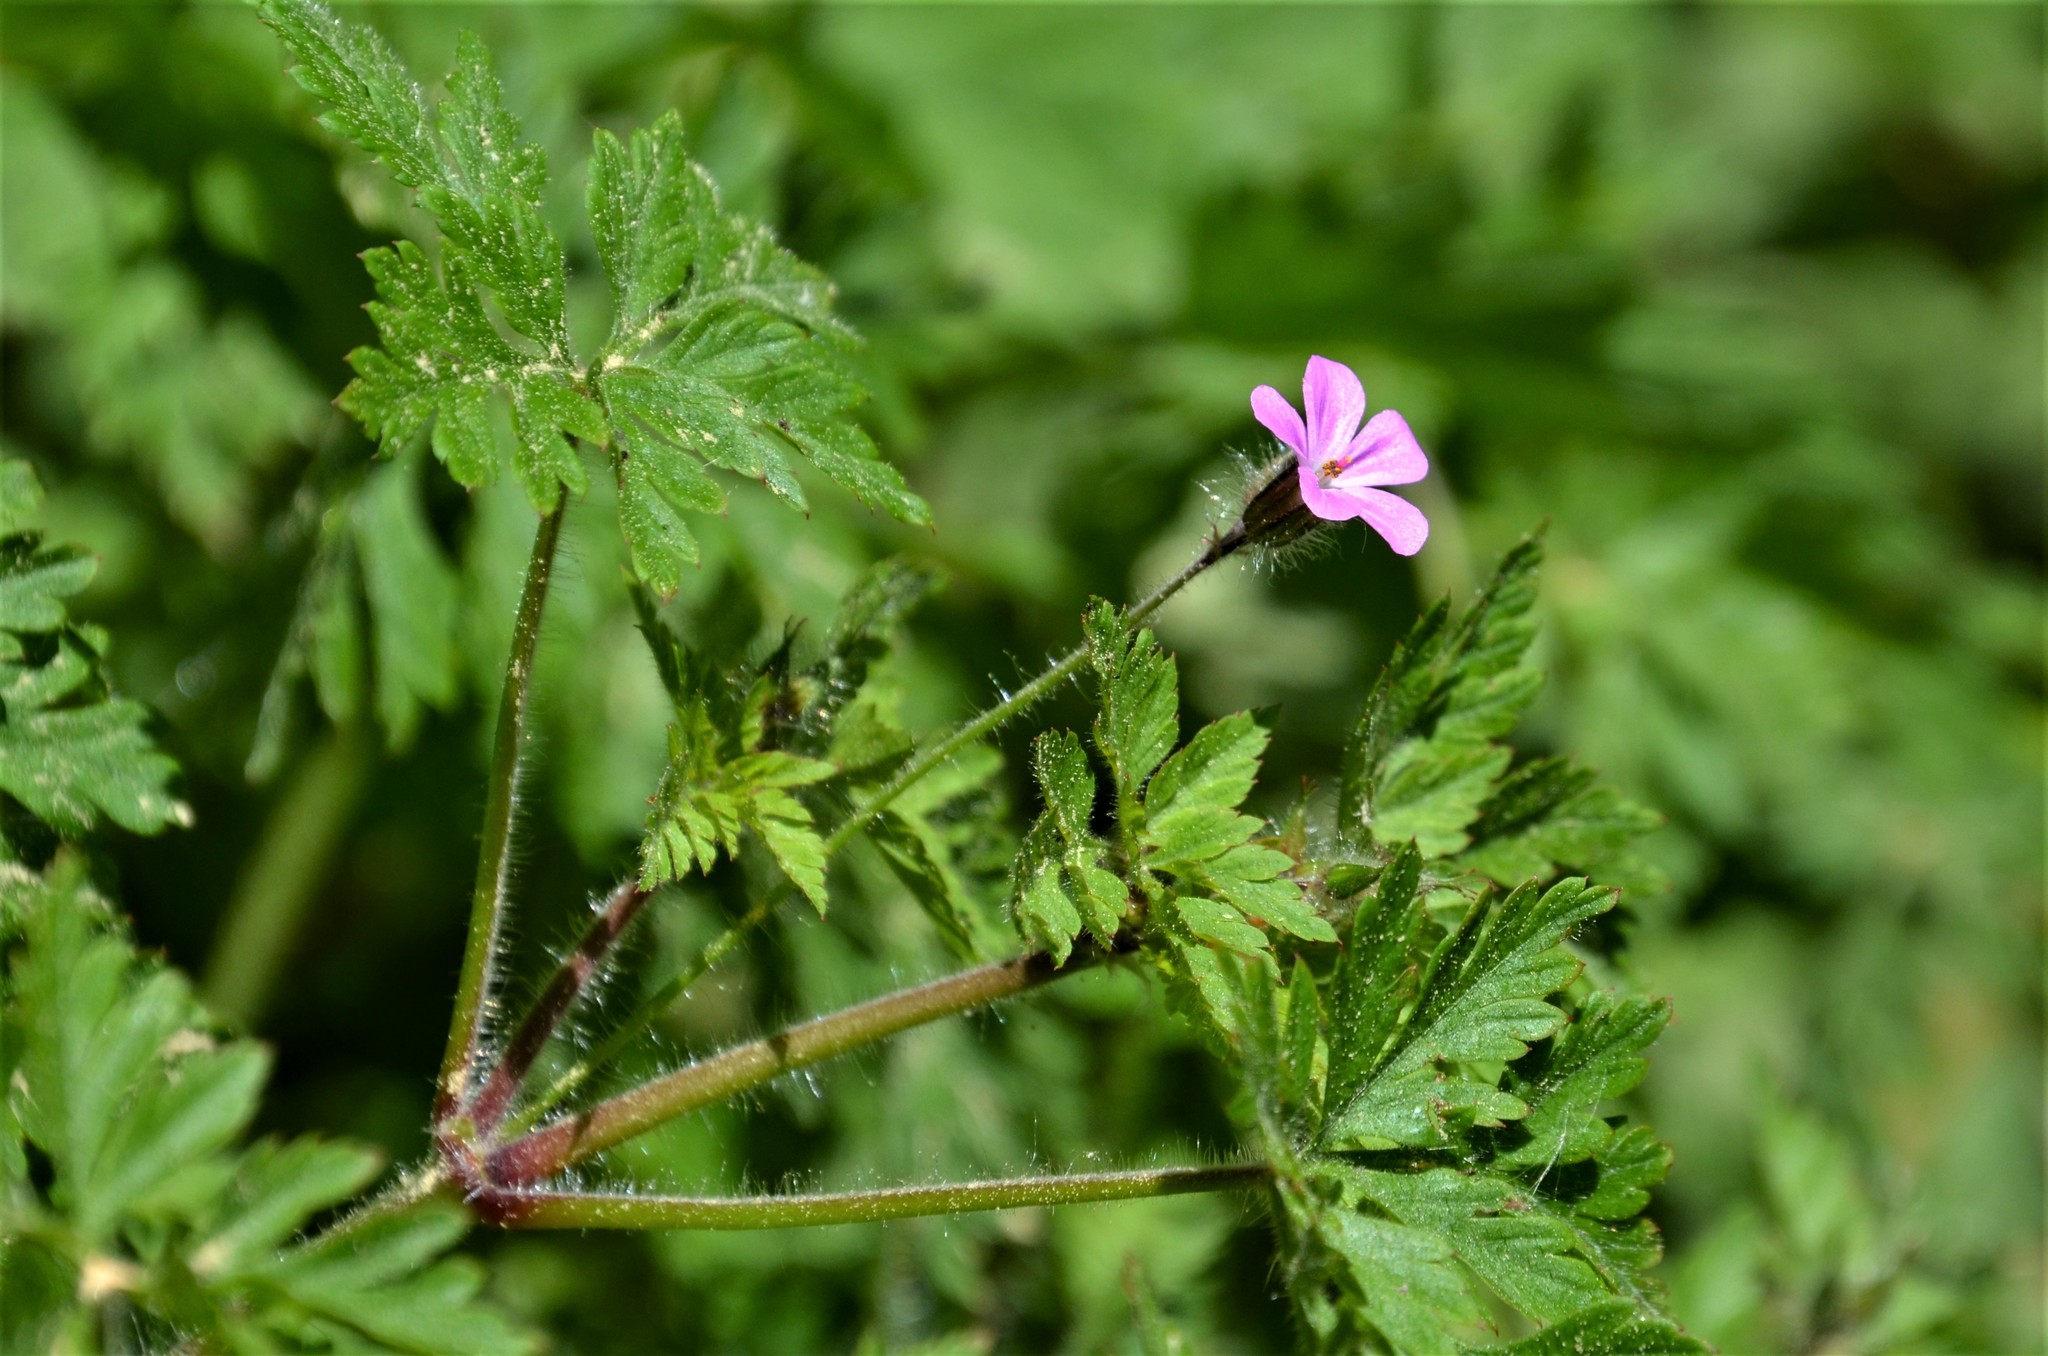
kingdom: Plantae
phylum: Tracheophyta
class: Magnoliopsida
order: Geraniales
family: Geraniaceae
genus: Geranium
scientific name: Geranium robertianum
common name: Herb-robert
